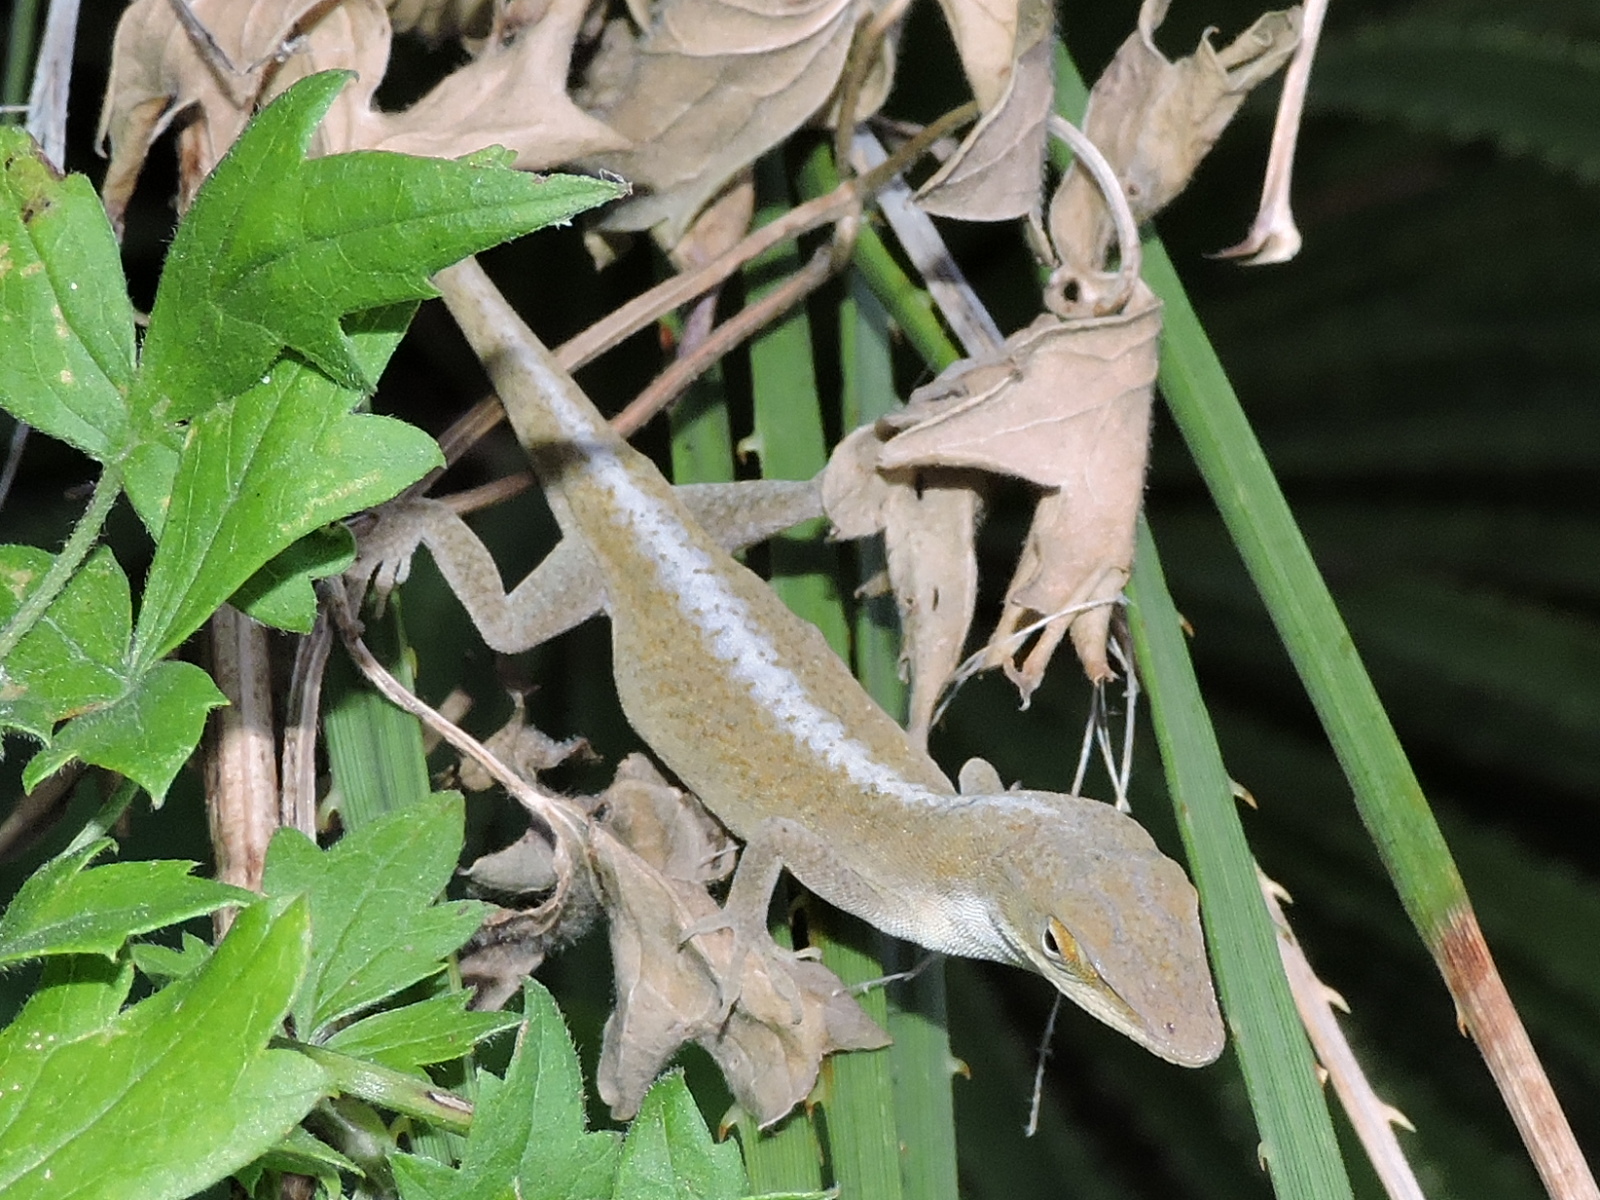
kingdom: Animalia
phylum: Chordata
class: Squamata
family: Dactyloidae
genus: Anolis
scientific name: Anolis carolinensis
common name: Green anole
